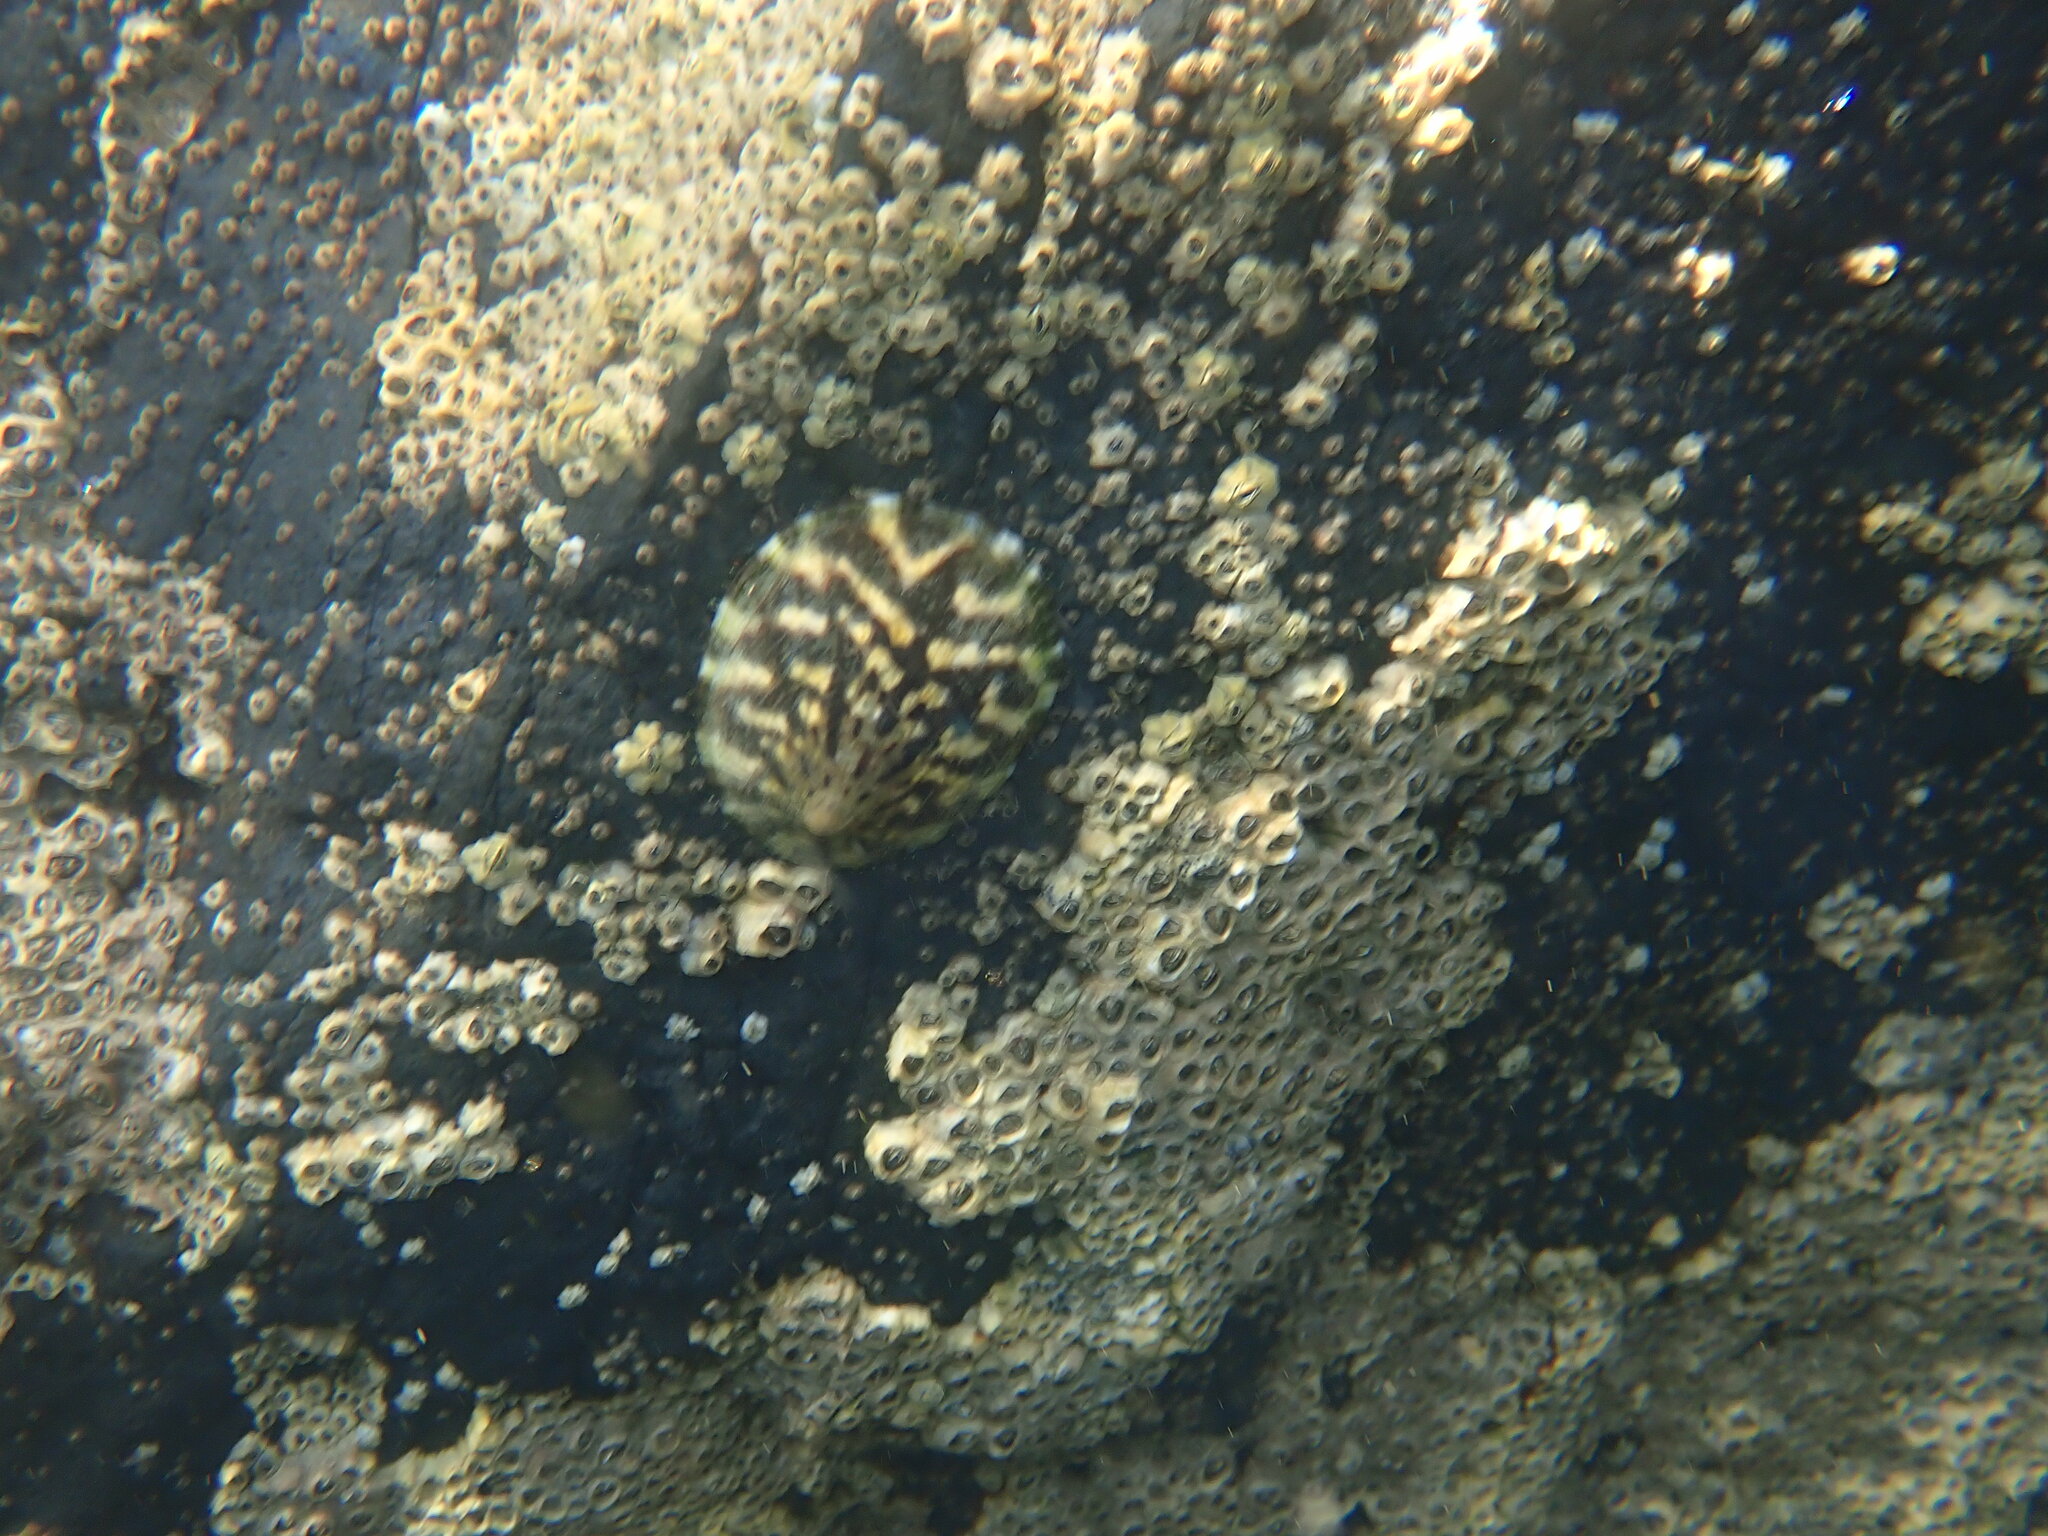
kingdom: Animalia
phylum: Mollusca
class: Gastropoda
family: Nacellidae
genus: Cellana
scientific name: Cellana radians
